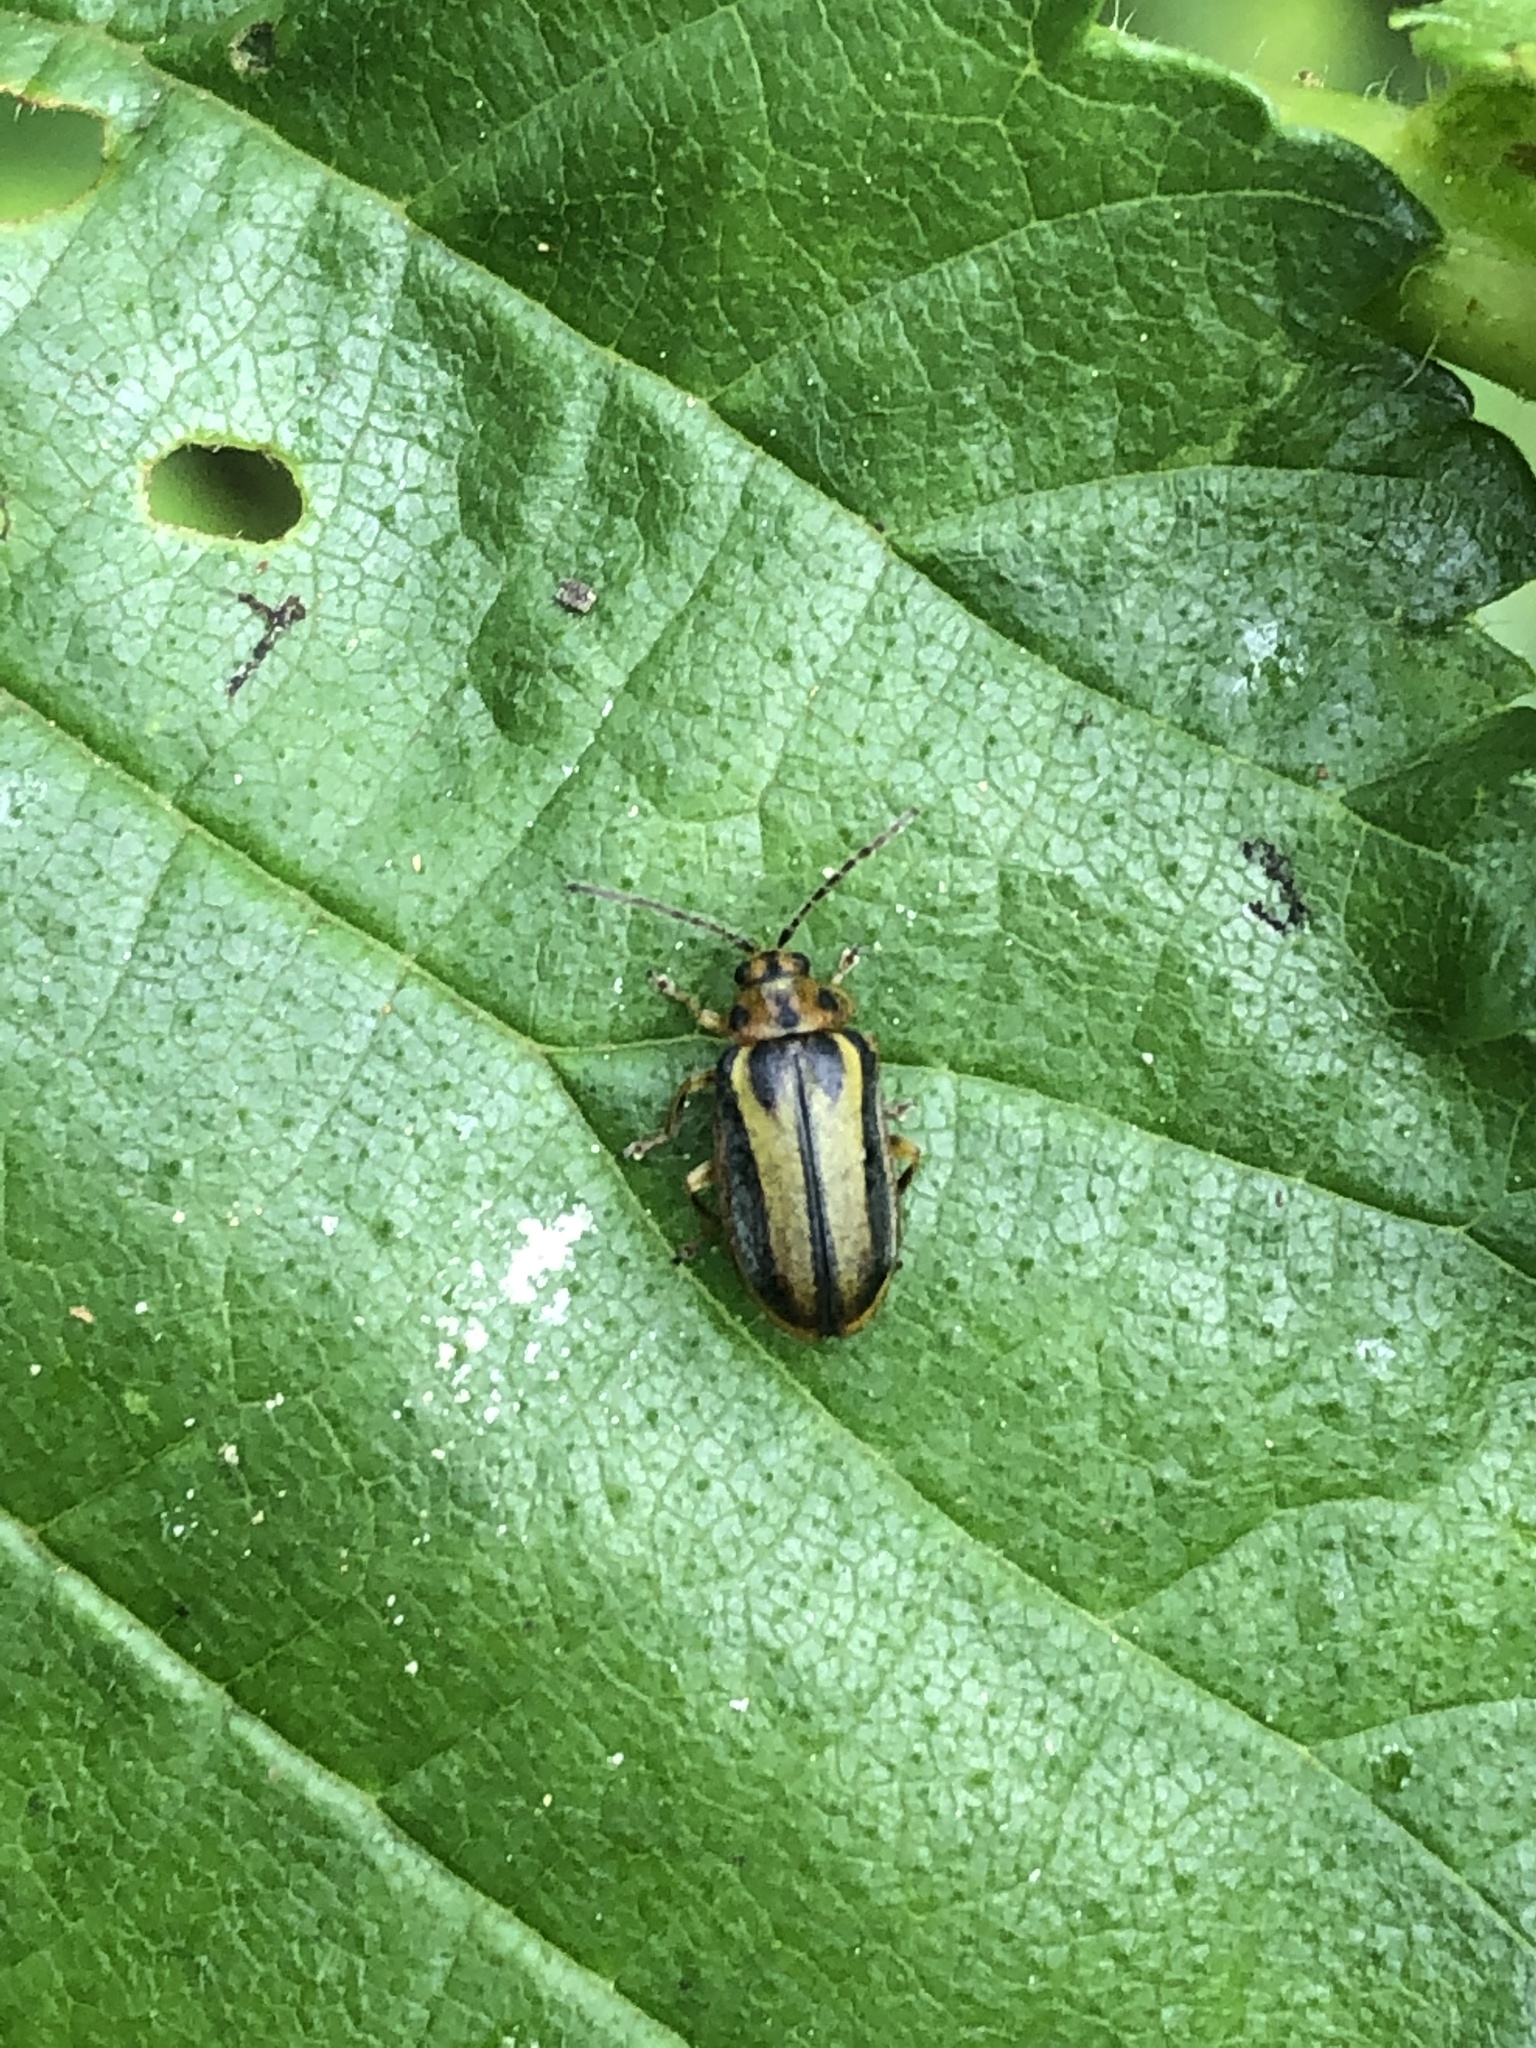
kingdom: Animalia
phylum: Arthropoda
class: Insecta
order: Coleoptera
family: Chrysomelidae
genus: Xanthogaleruca
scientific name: Xanthogaleruca luteola
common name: Elm leaf beetle
